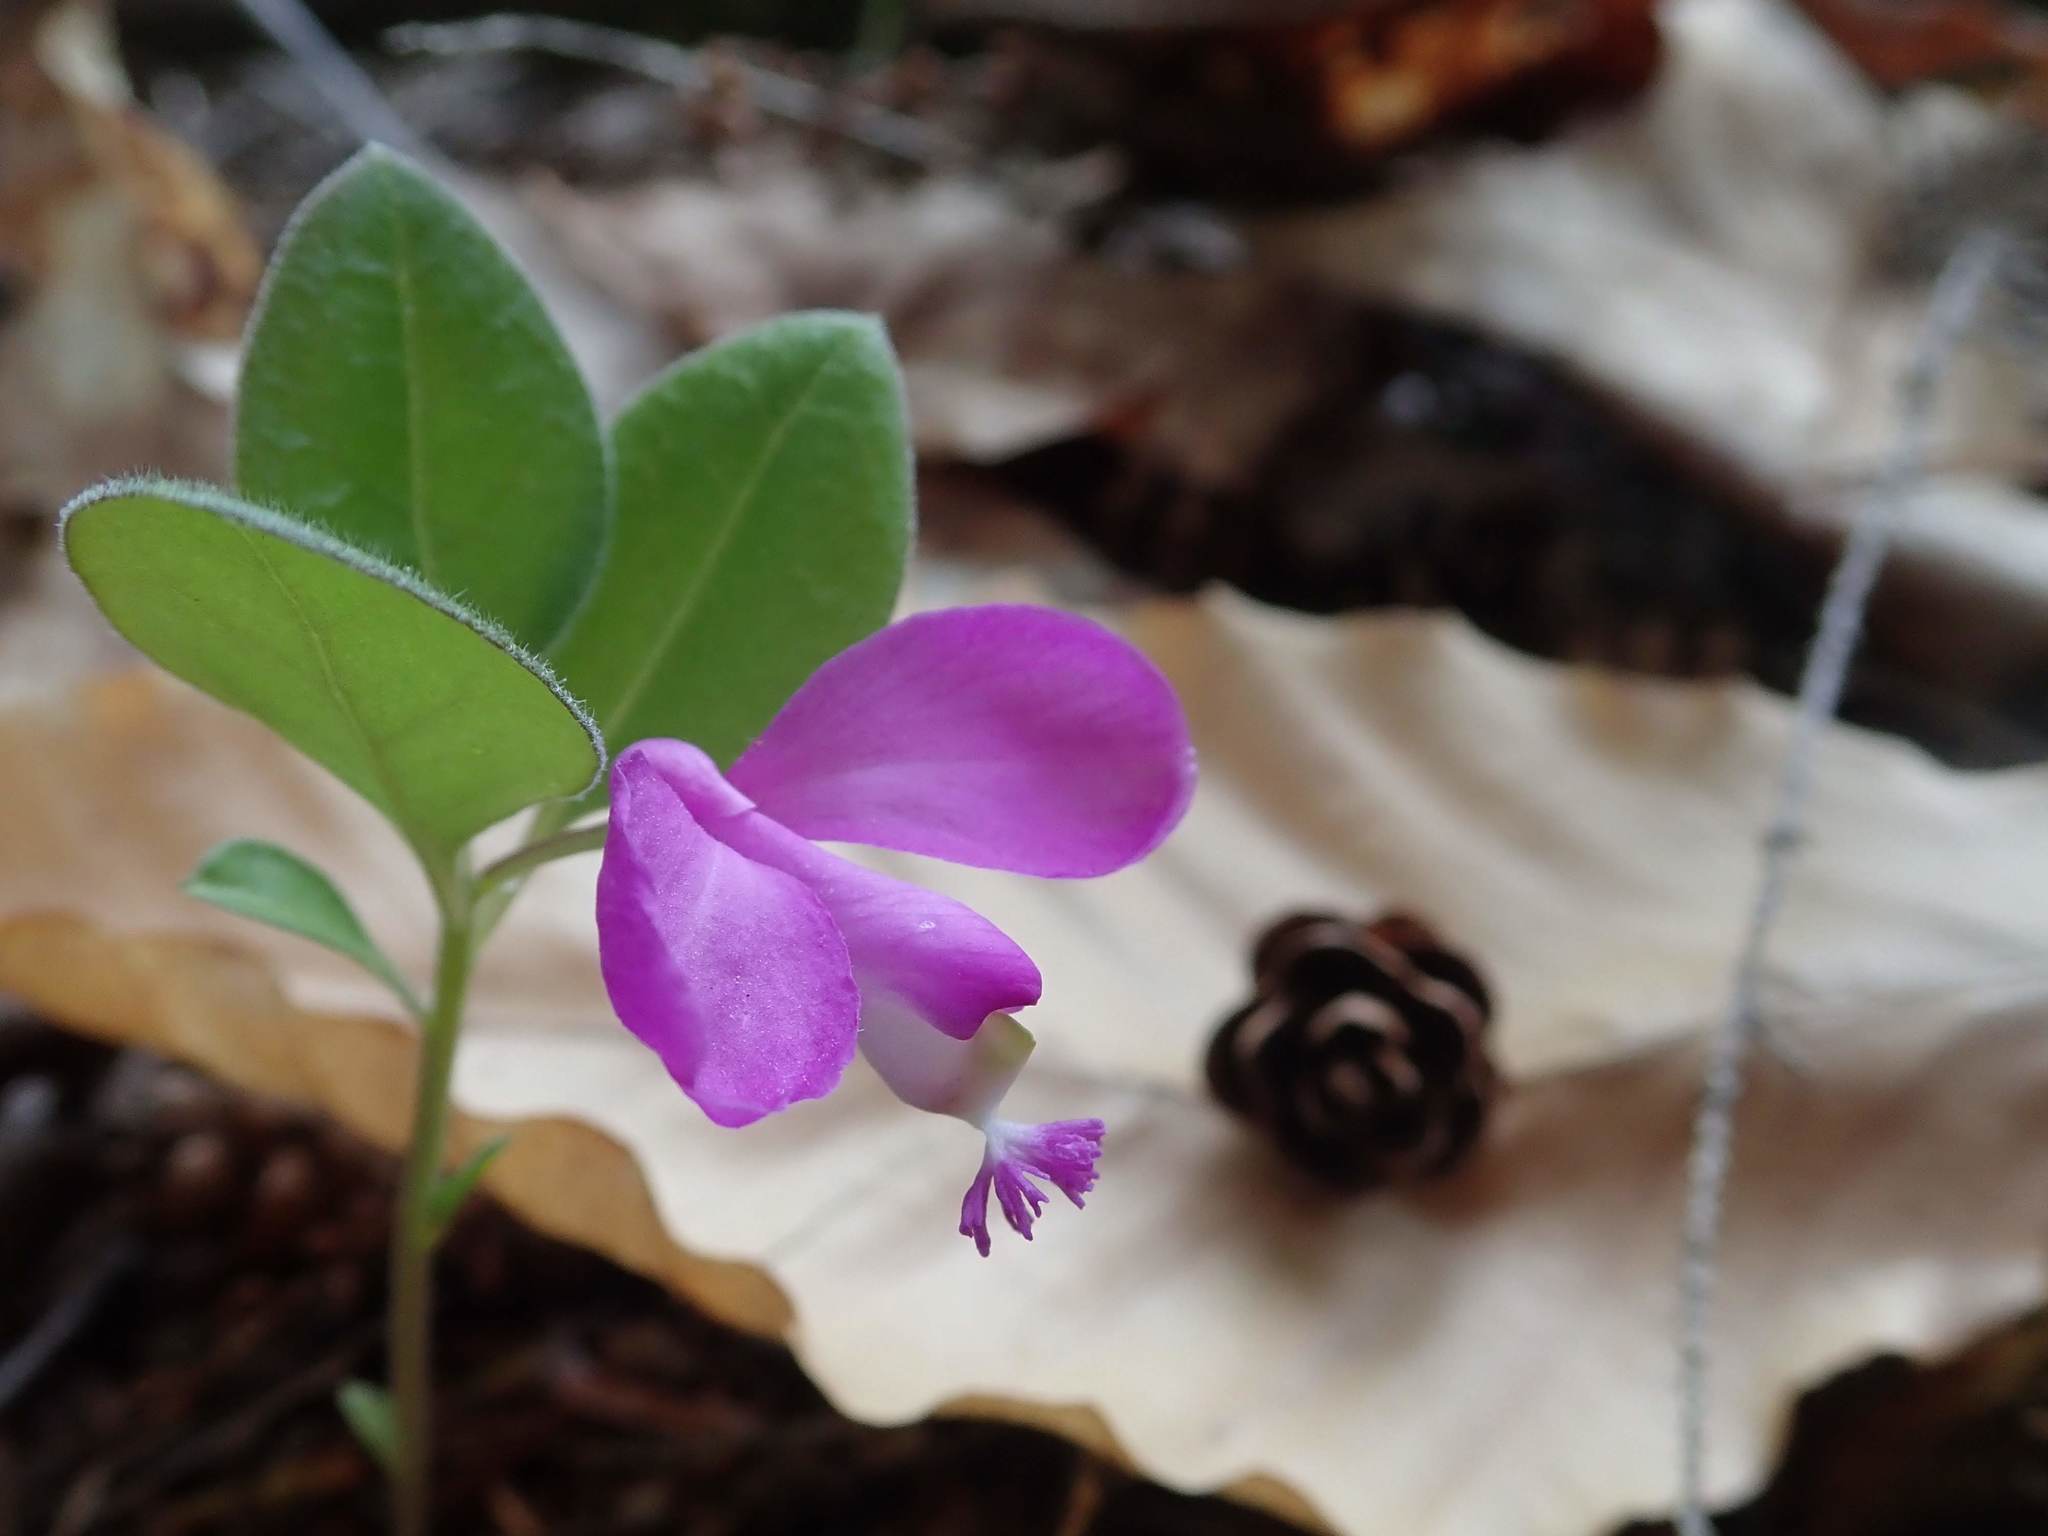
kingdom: Plantae
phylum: Tracheophyta
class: Magnoliopsida
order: Fabales
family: Polygalaceae
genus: Polygaloides
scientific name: Polygaloides paucifolia
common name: Bird-on-the-wing
